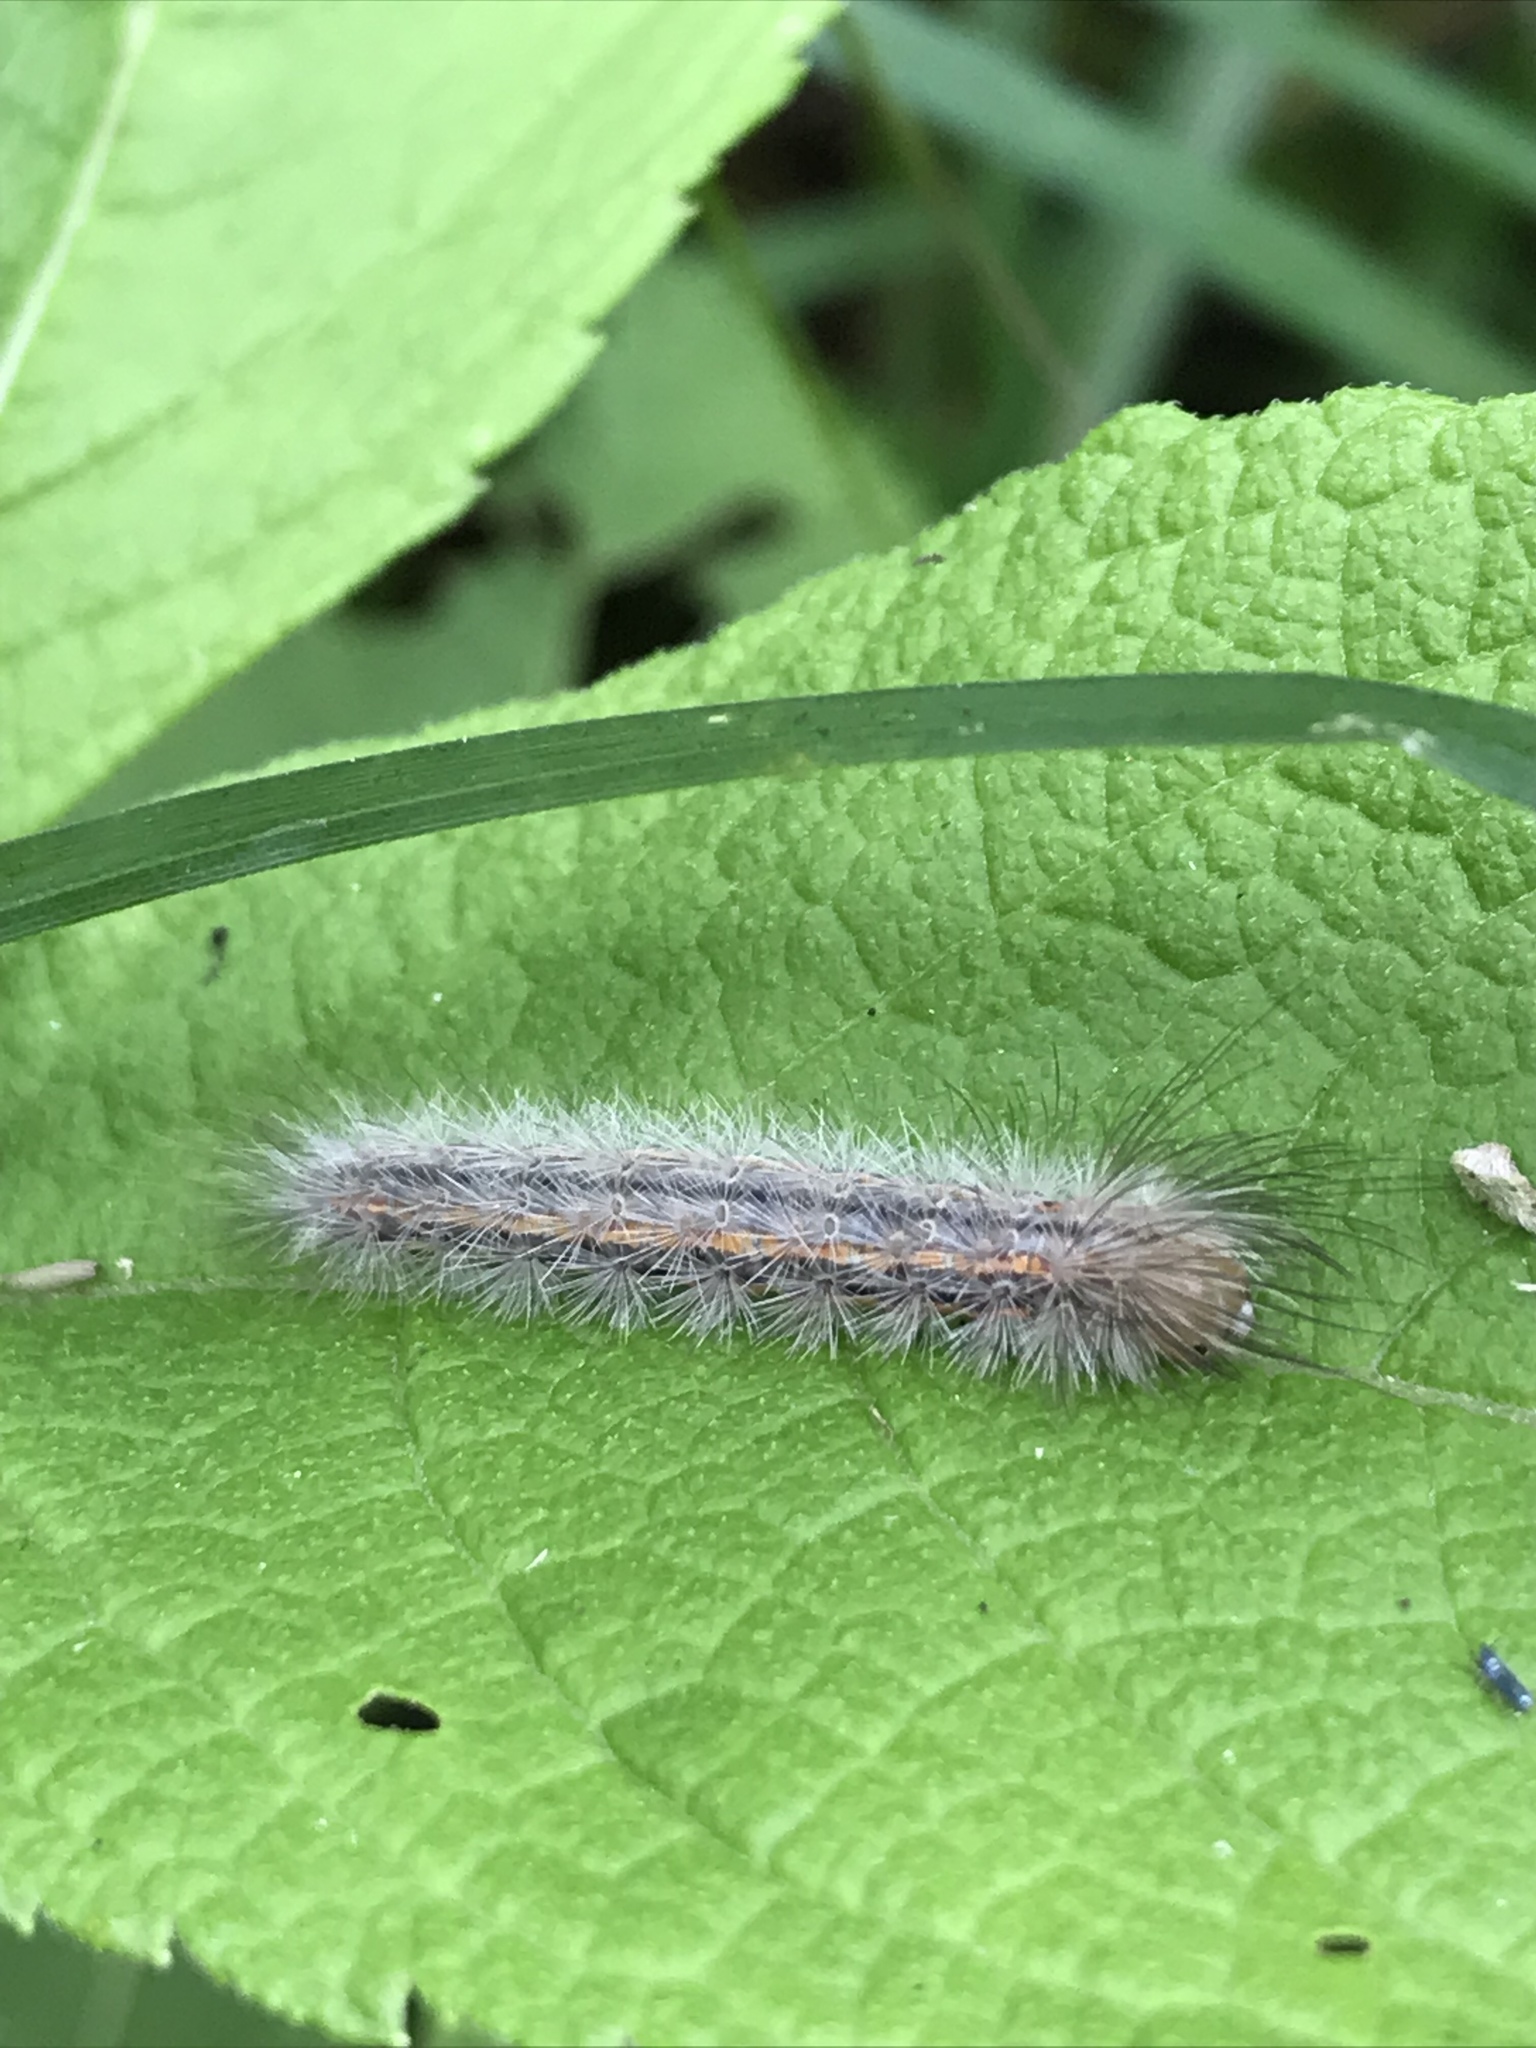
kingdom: Animalia
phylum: Arthropoda
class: Insecta
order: Lepidoptera
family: Erebidae
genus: Cisseps
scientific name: Cisseps fulvicollis
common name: Yellow-collared scape moth
